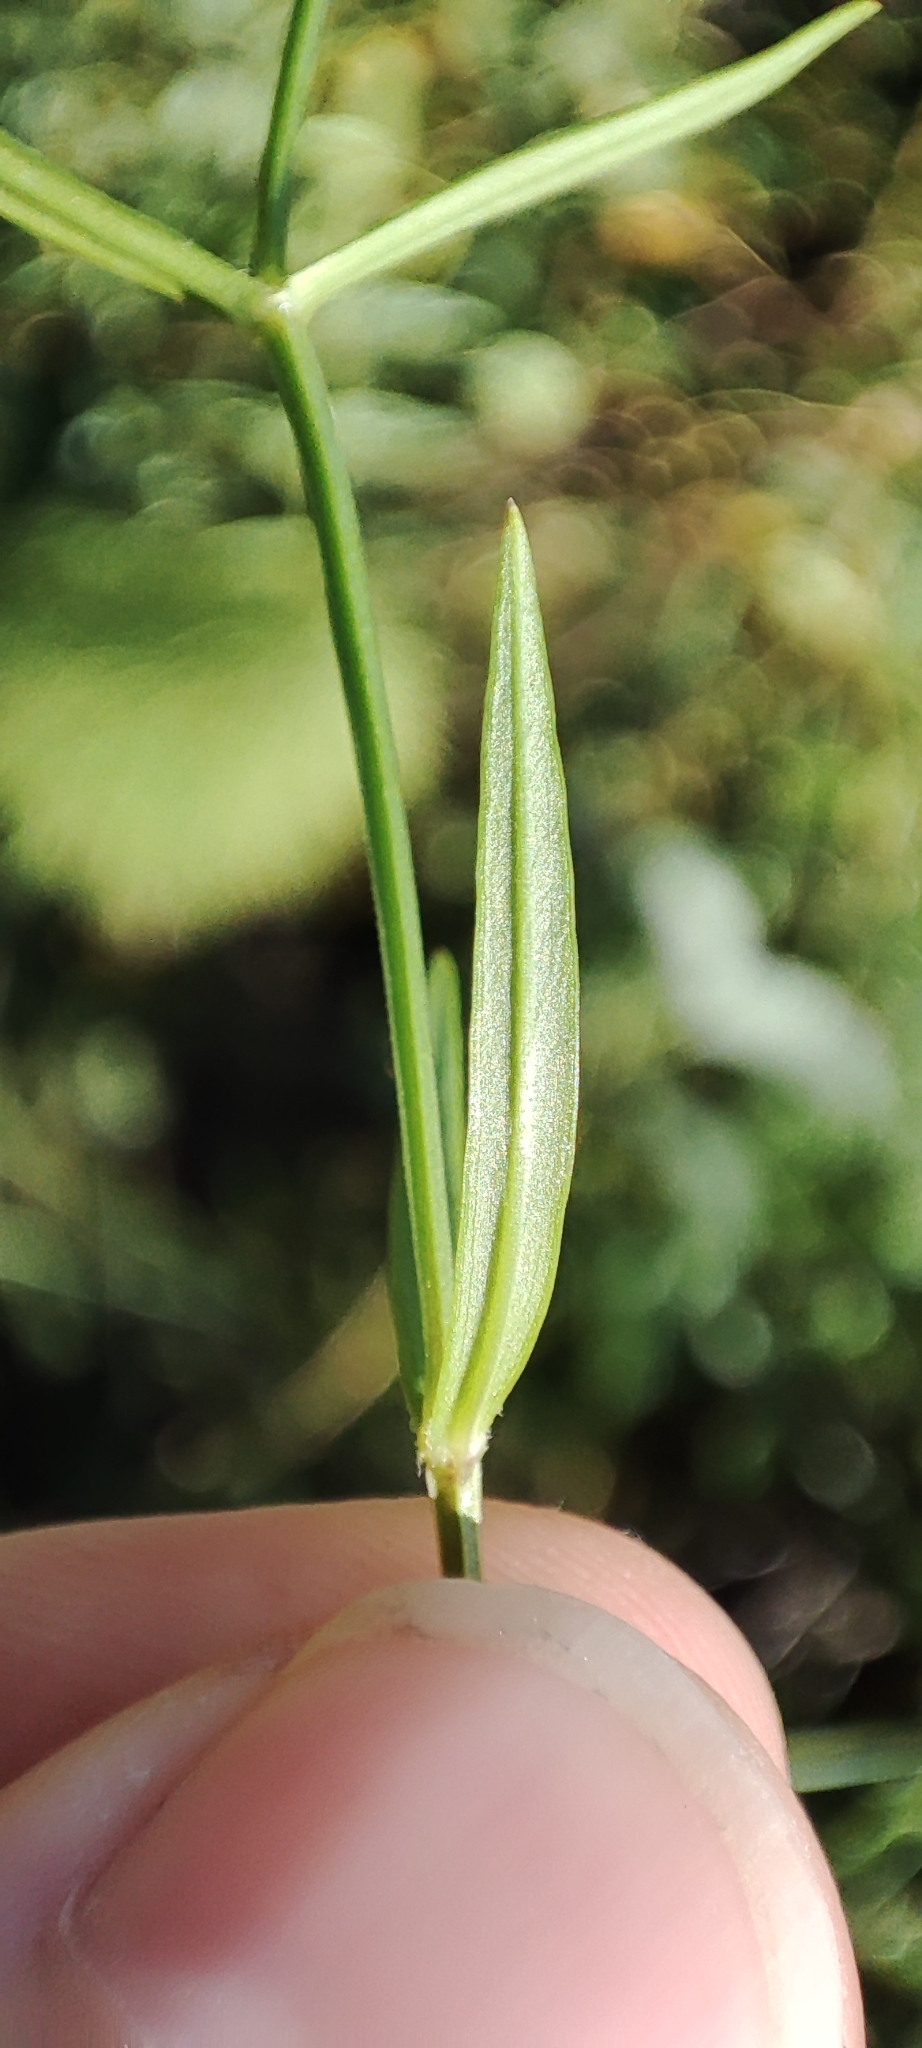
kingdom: Plantae
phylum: Tracheophyta
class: Magnoliopsida
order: Caryophyllales
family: Caryophyllaceae
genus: Stellaria
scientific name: Stellaria graminea
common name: Grass-like starwort
